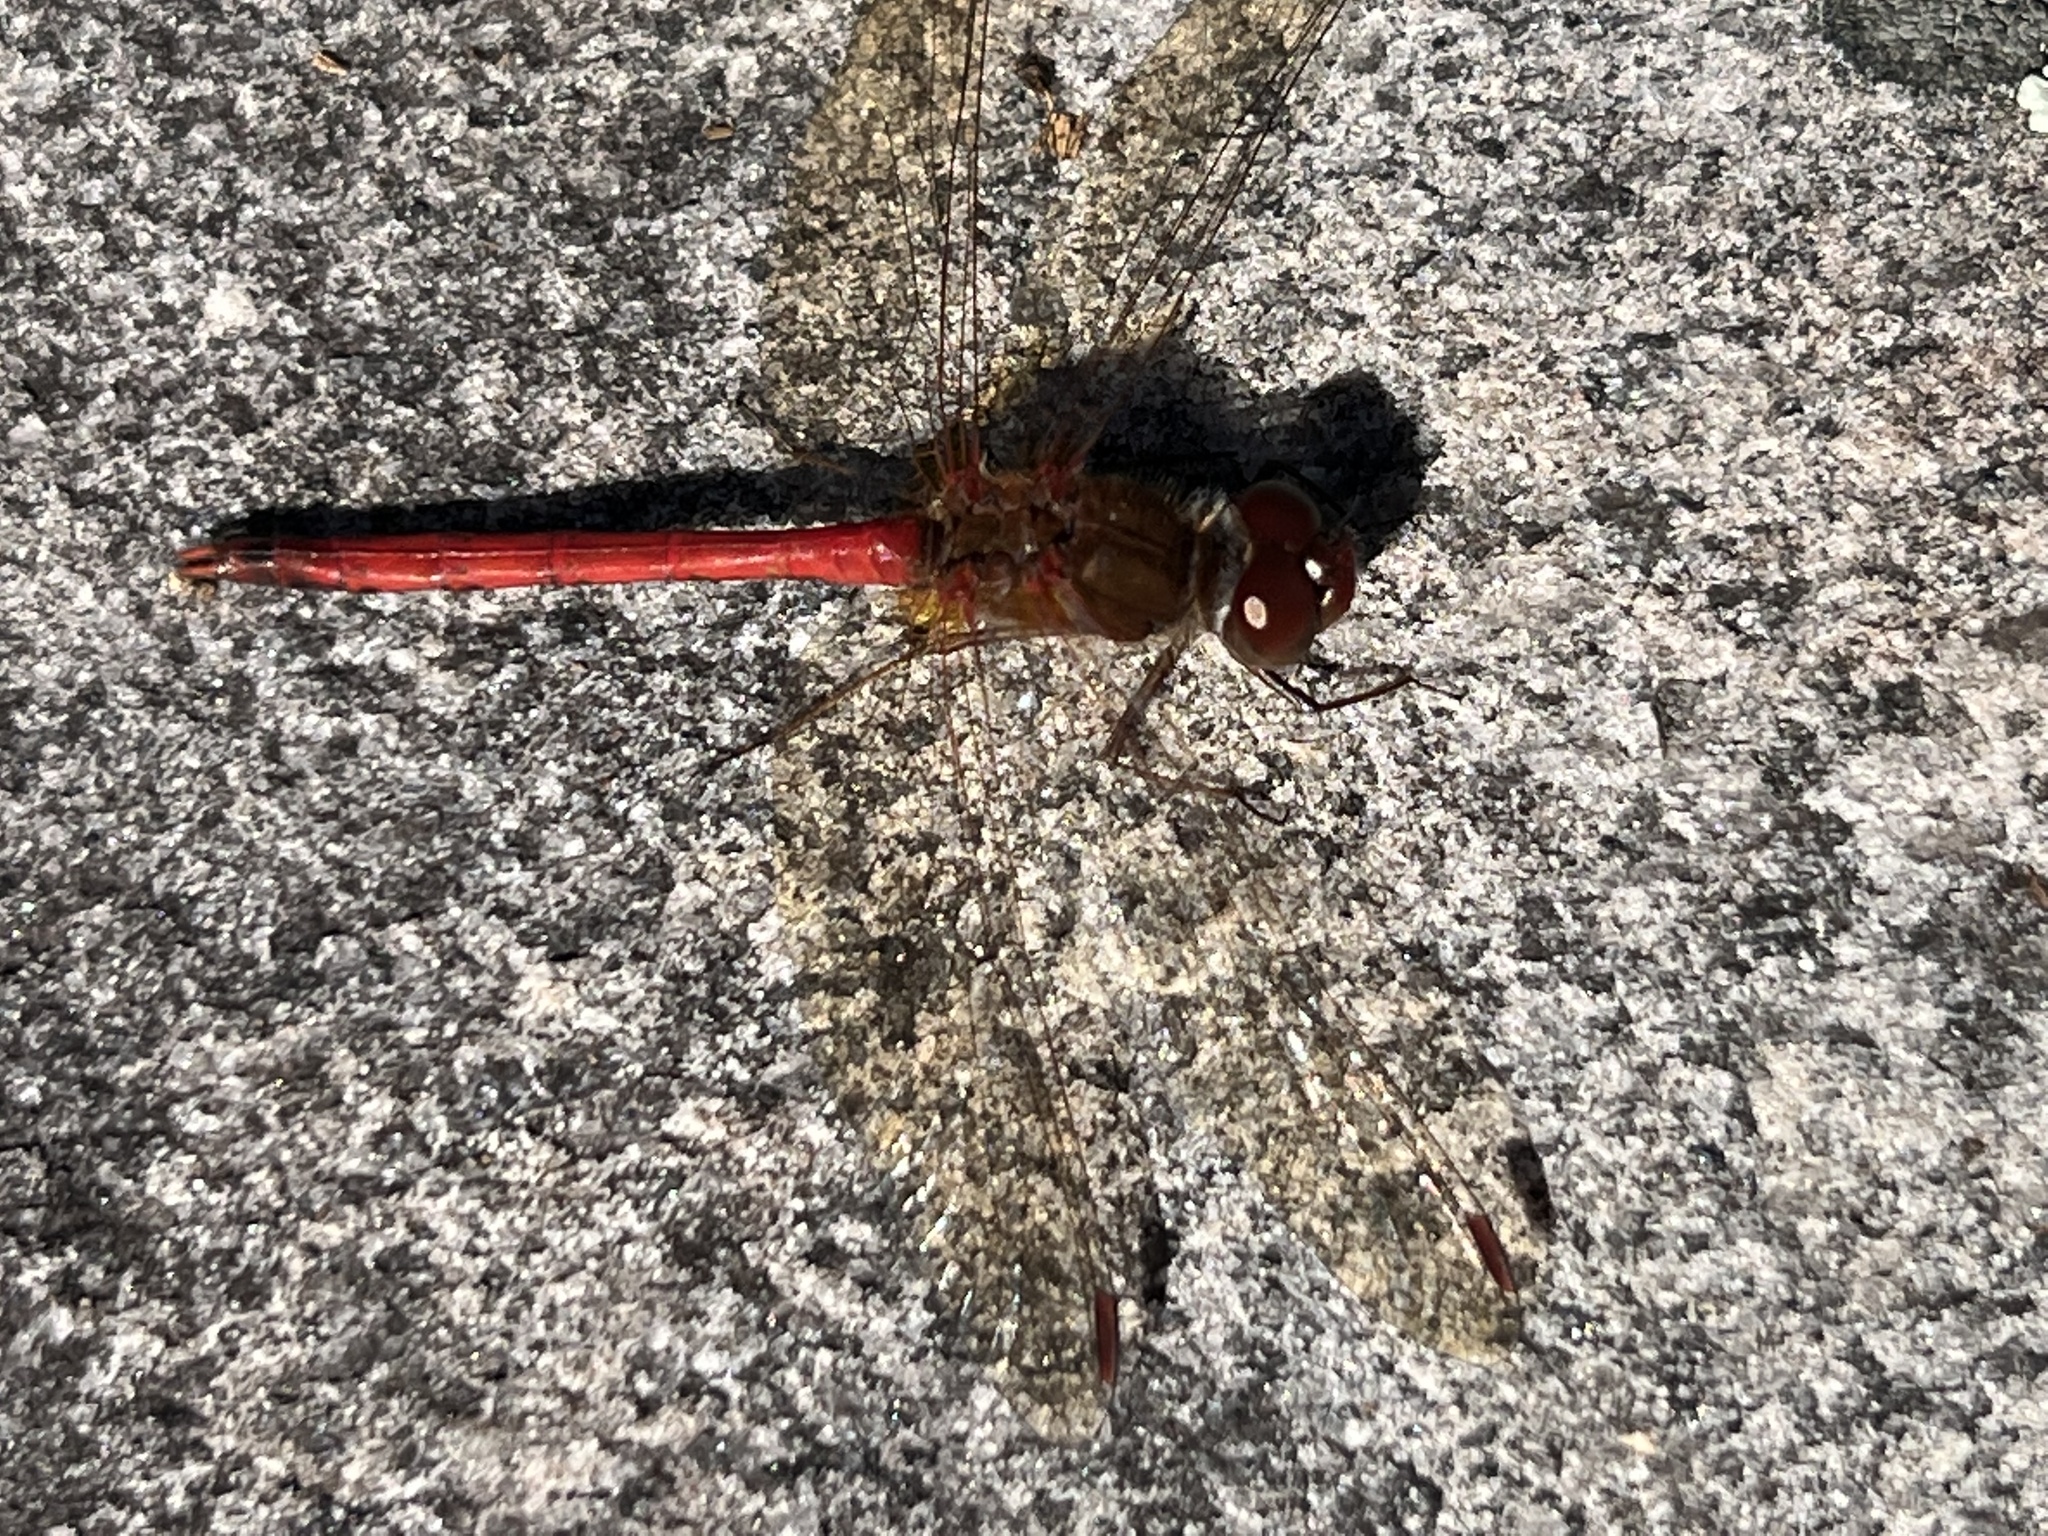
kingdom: Animalia
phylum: Arthropoda
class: Insecta
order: Odonata
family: Libellulidae
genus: Sympetrum
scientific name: Sympetrum vicinum
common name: Autumn meadowhawk
